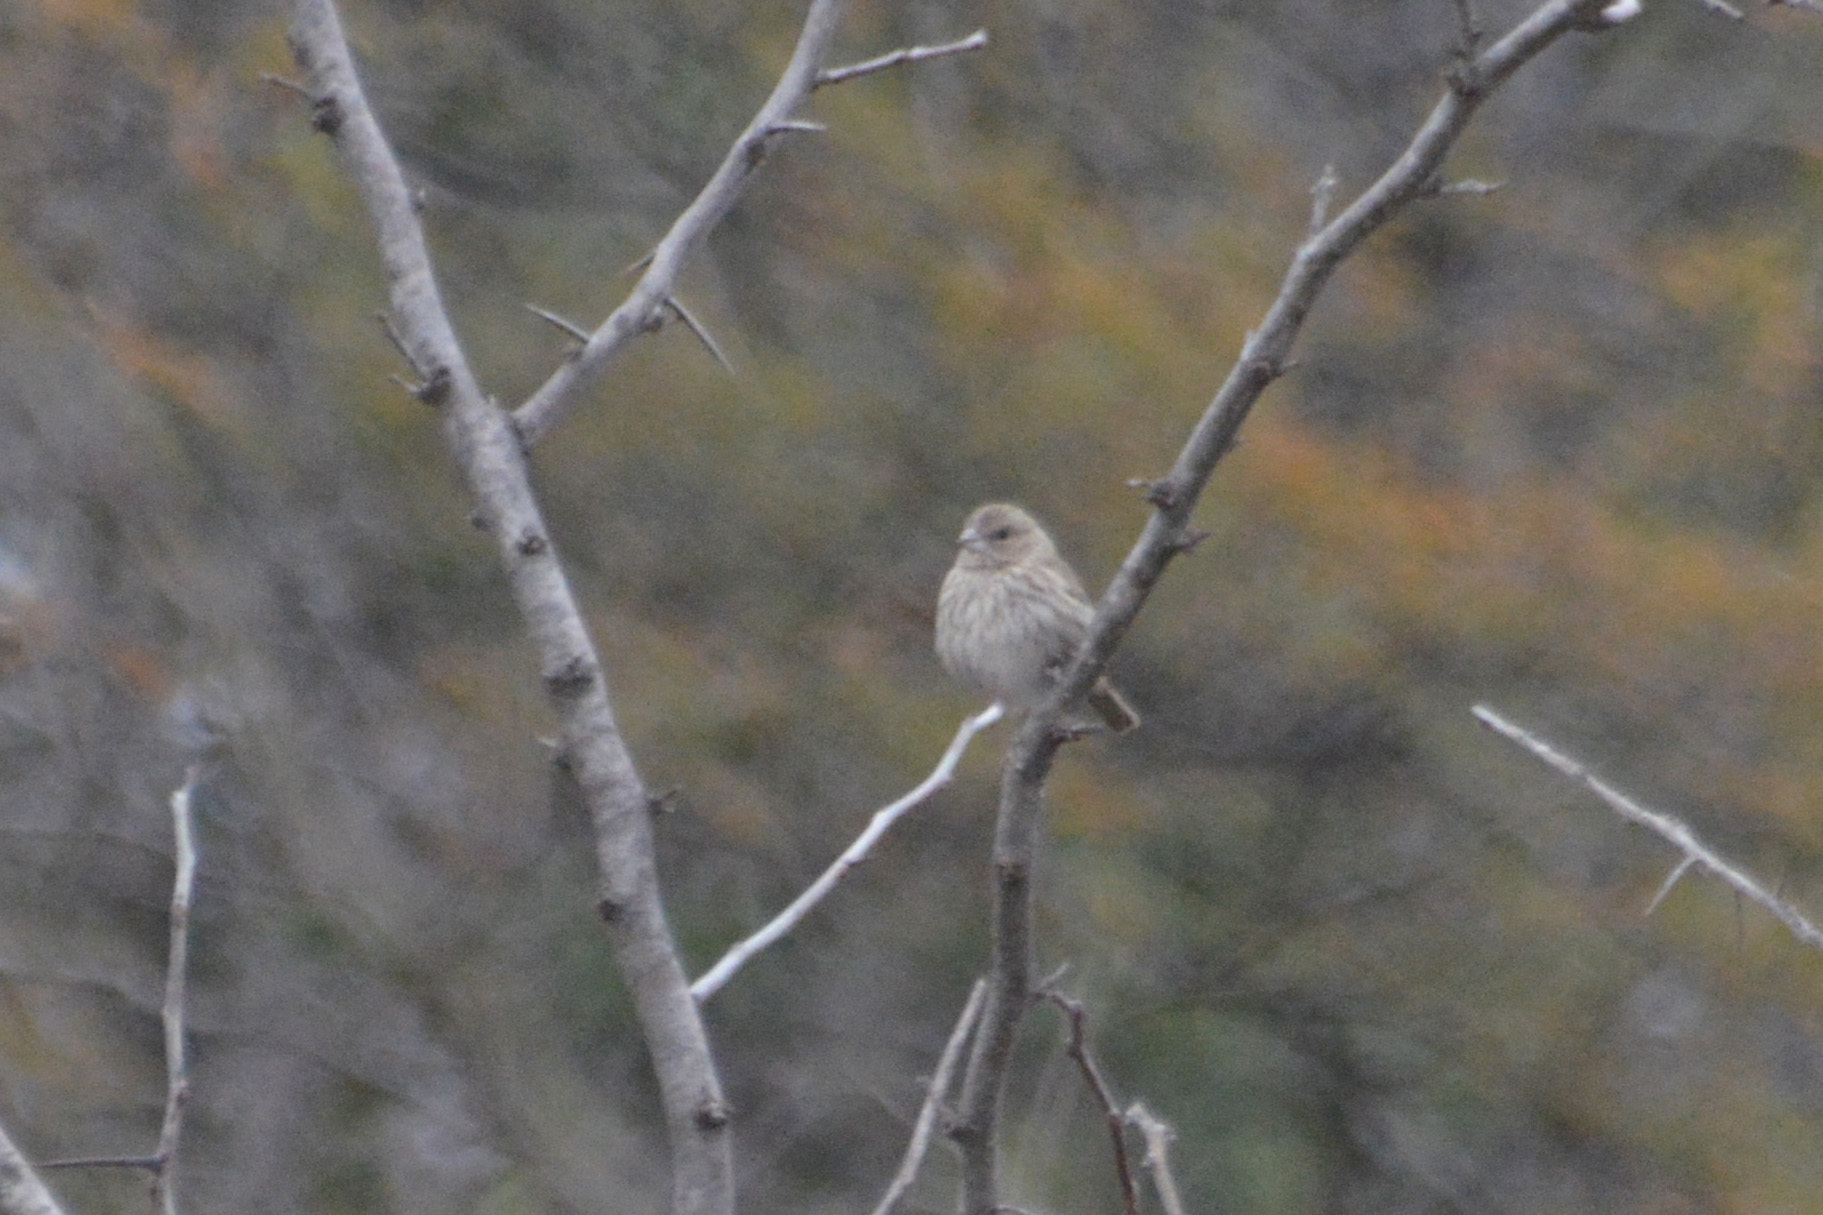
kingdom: Animalia
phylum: Chordata
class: Aves
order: Passeriformes
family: Thraupidae
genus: Sicalis
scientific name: Sicalis flaveola
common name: Saffron finch
